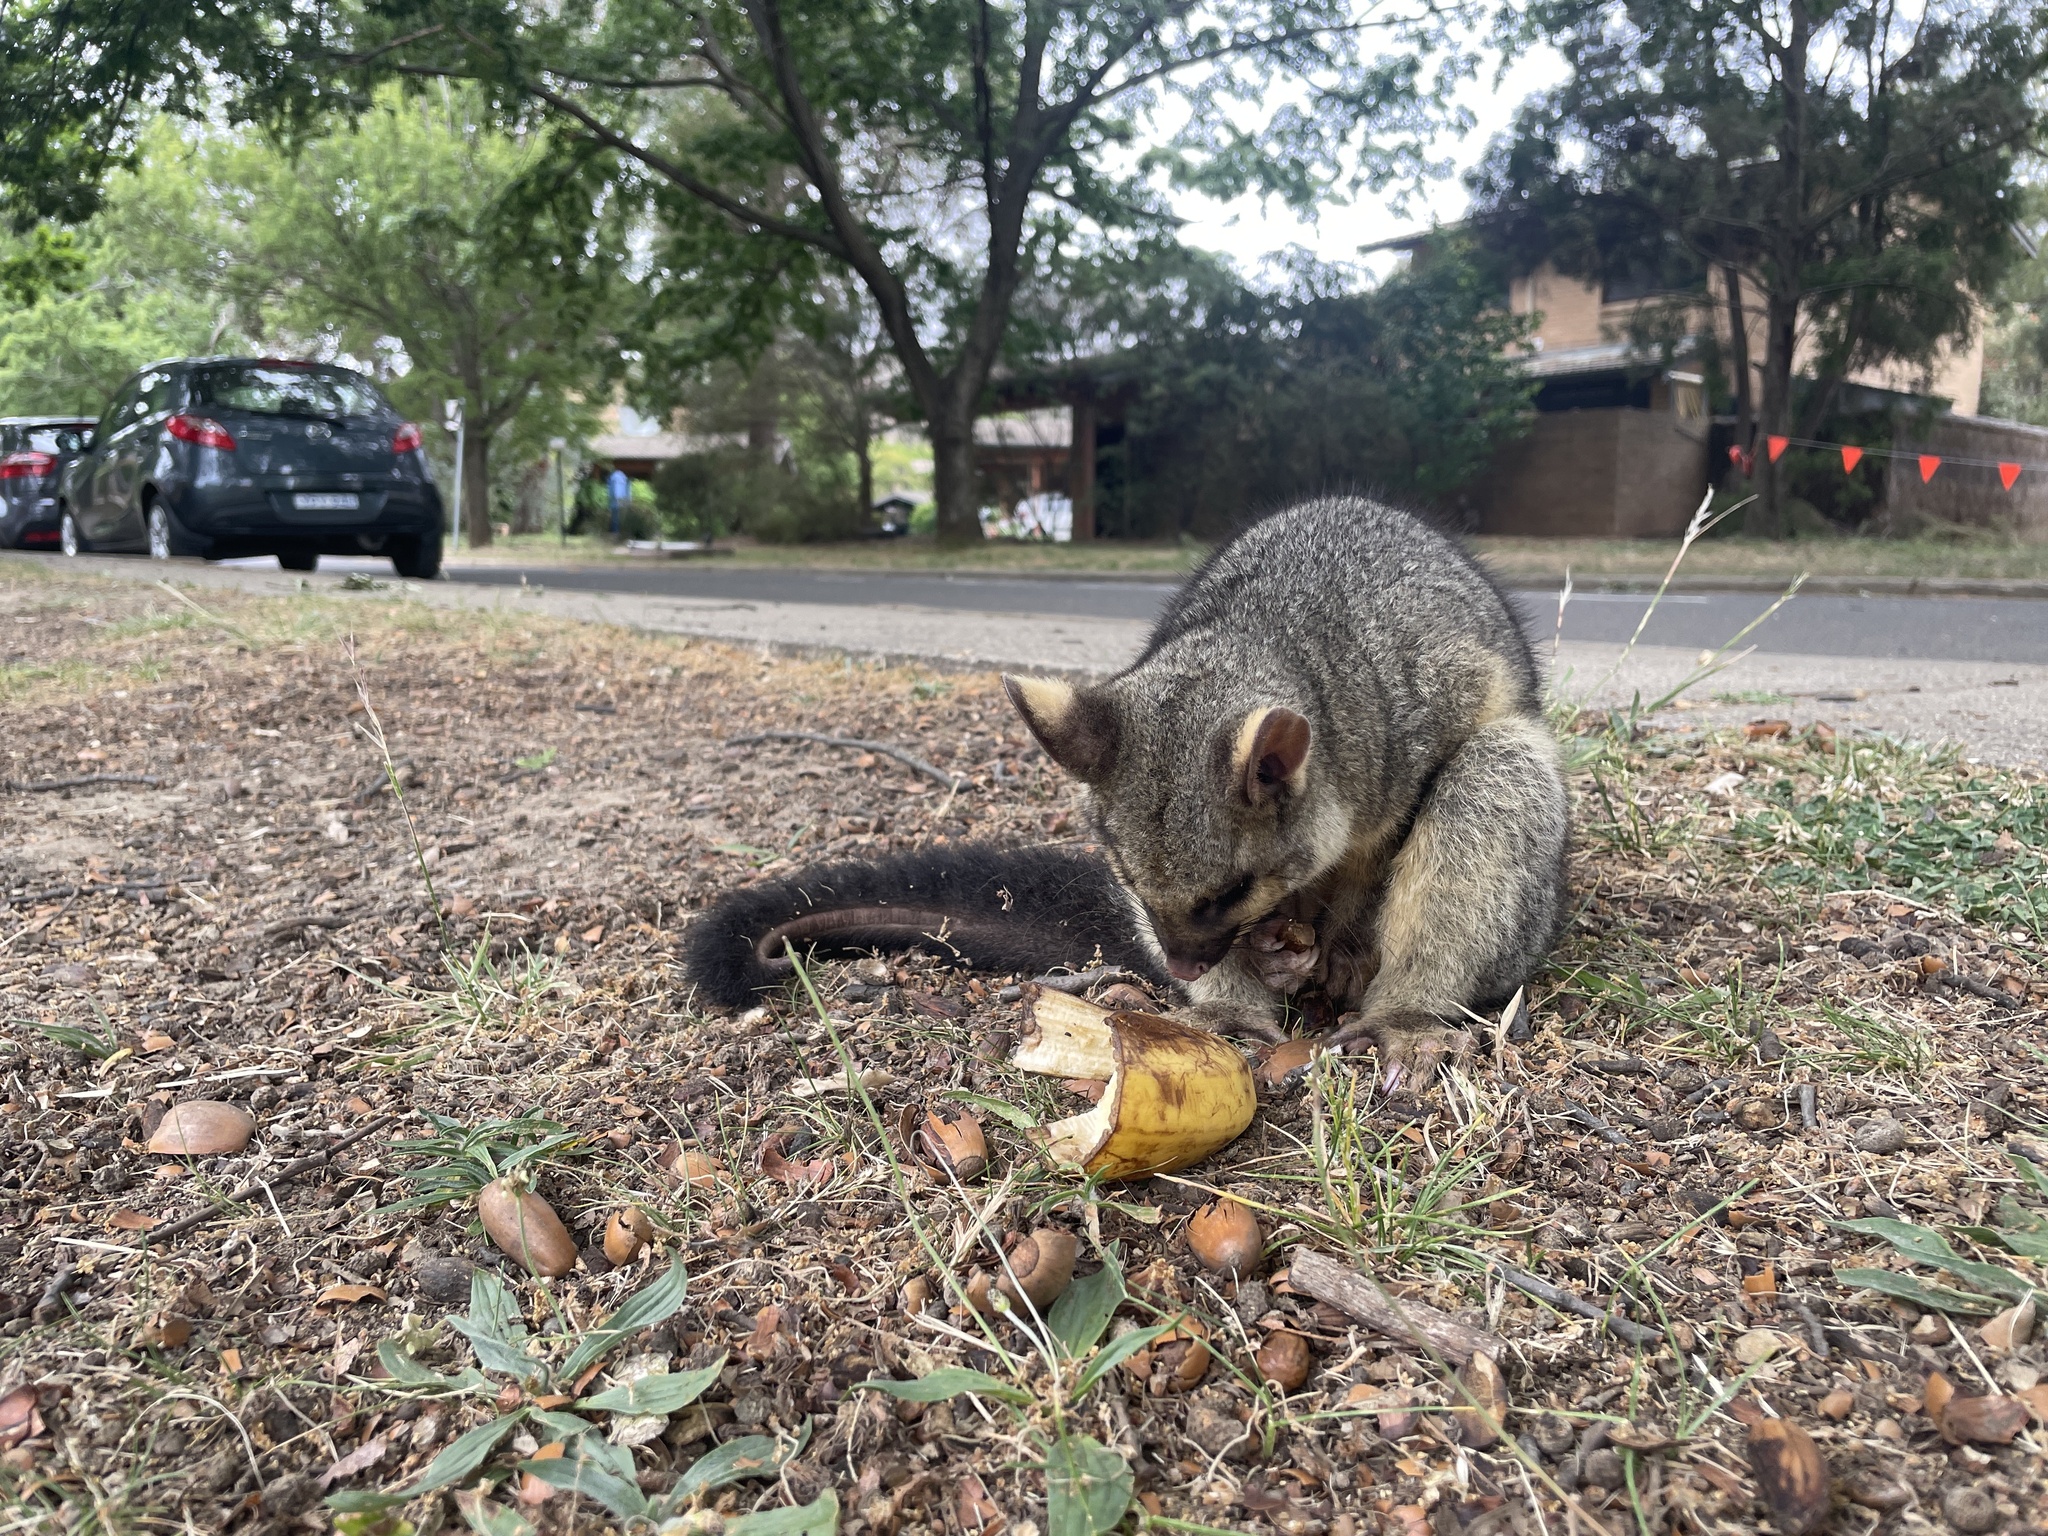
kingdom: Animalia
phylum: Chordata
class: Mammalia
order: Diprotodontia
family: Phalangeridae
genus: Trichosurus
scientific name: Trichosurus vulpecula
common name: Common brushtail
